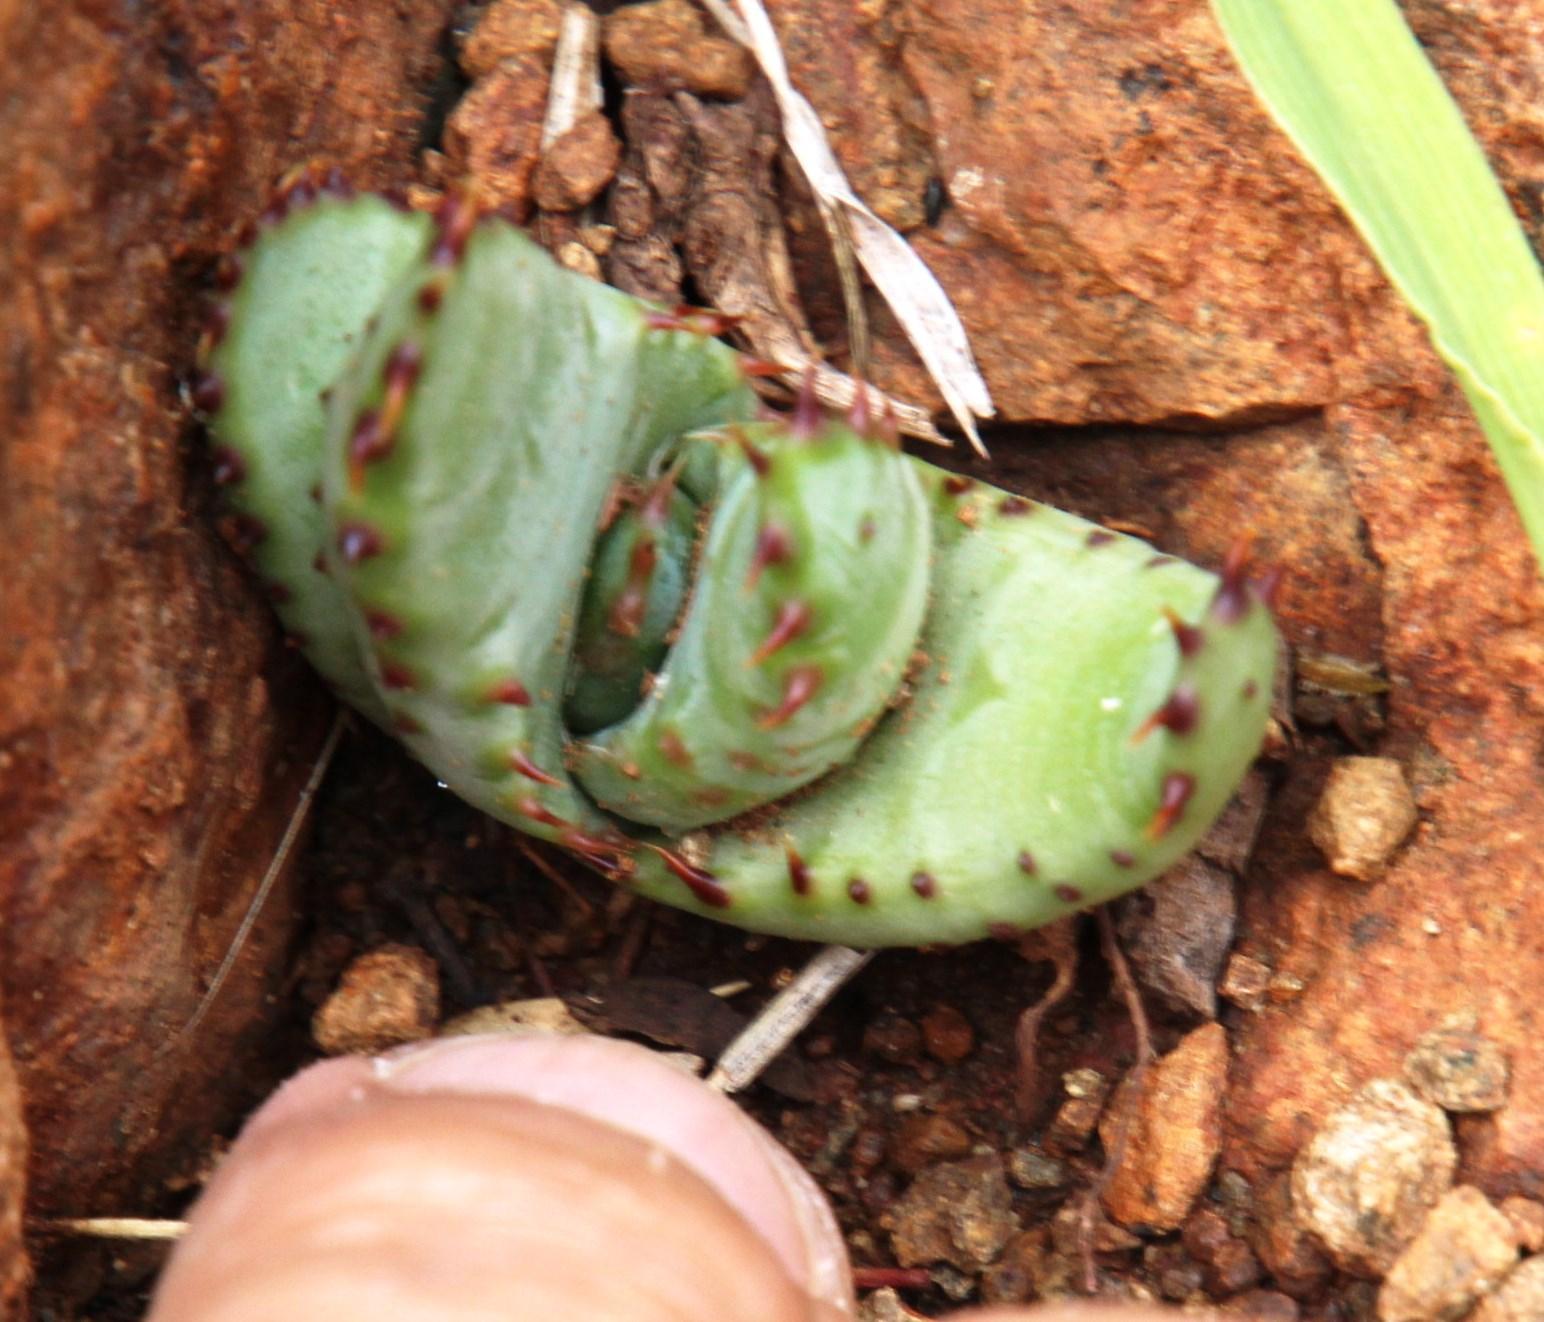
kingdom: Plantae
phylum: Tracheophyta
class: Liliopsida
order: Asparagales
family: Asphodelaceae
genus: Aloe
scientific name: Aloe broomii
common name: Berg alwyn
